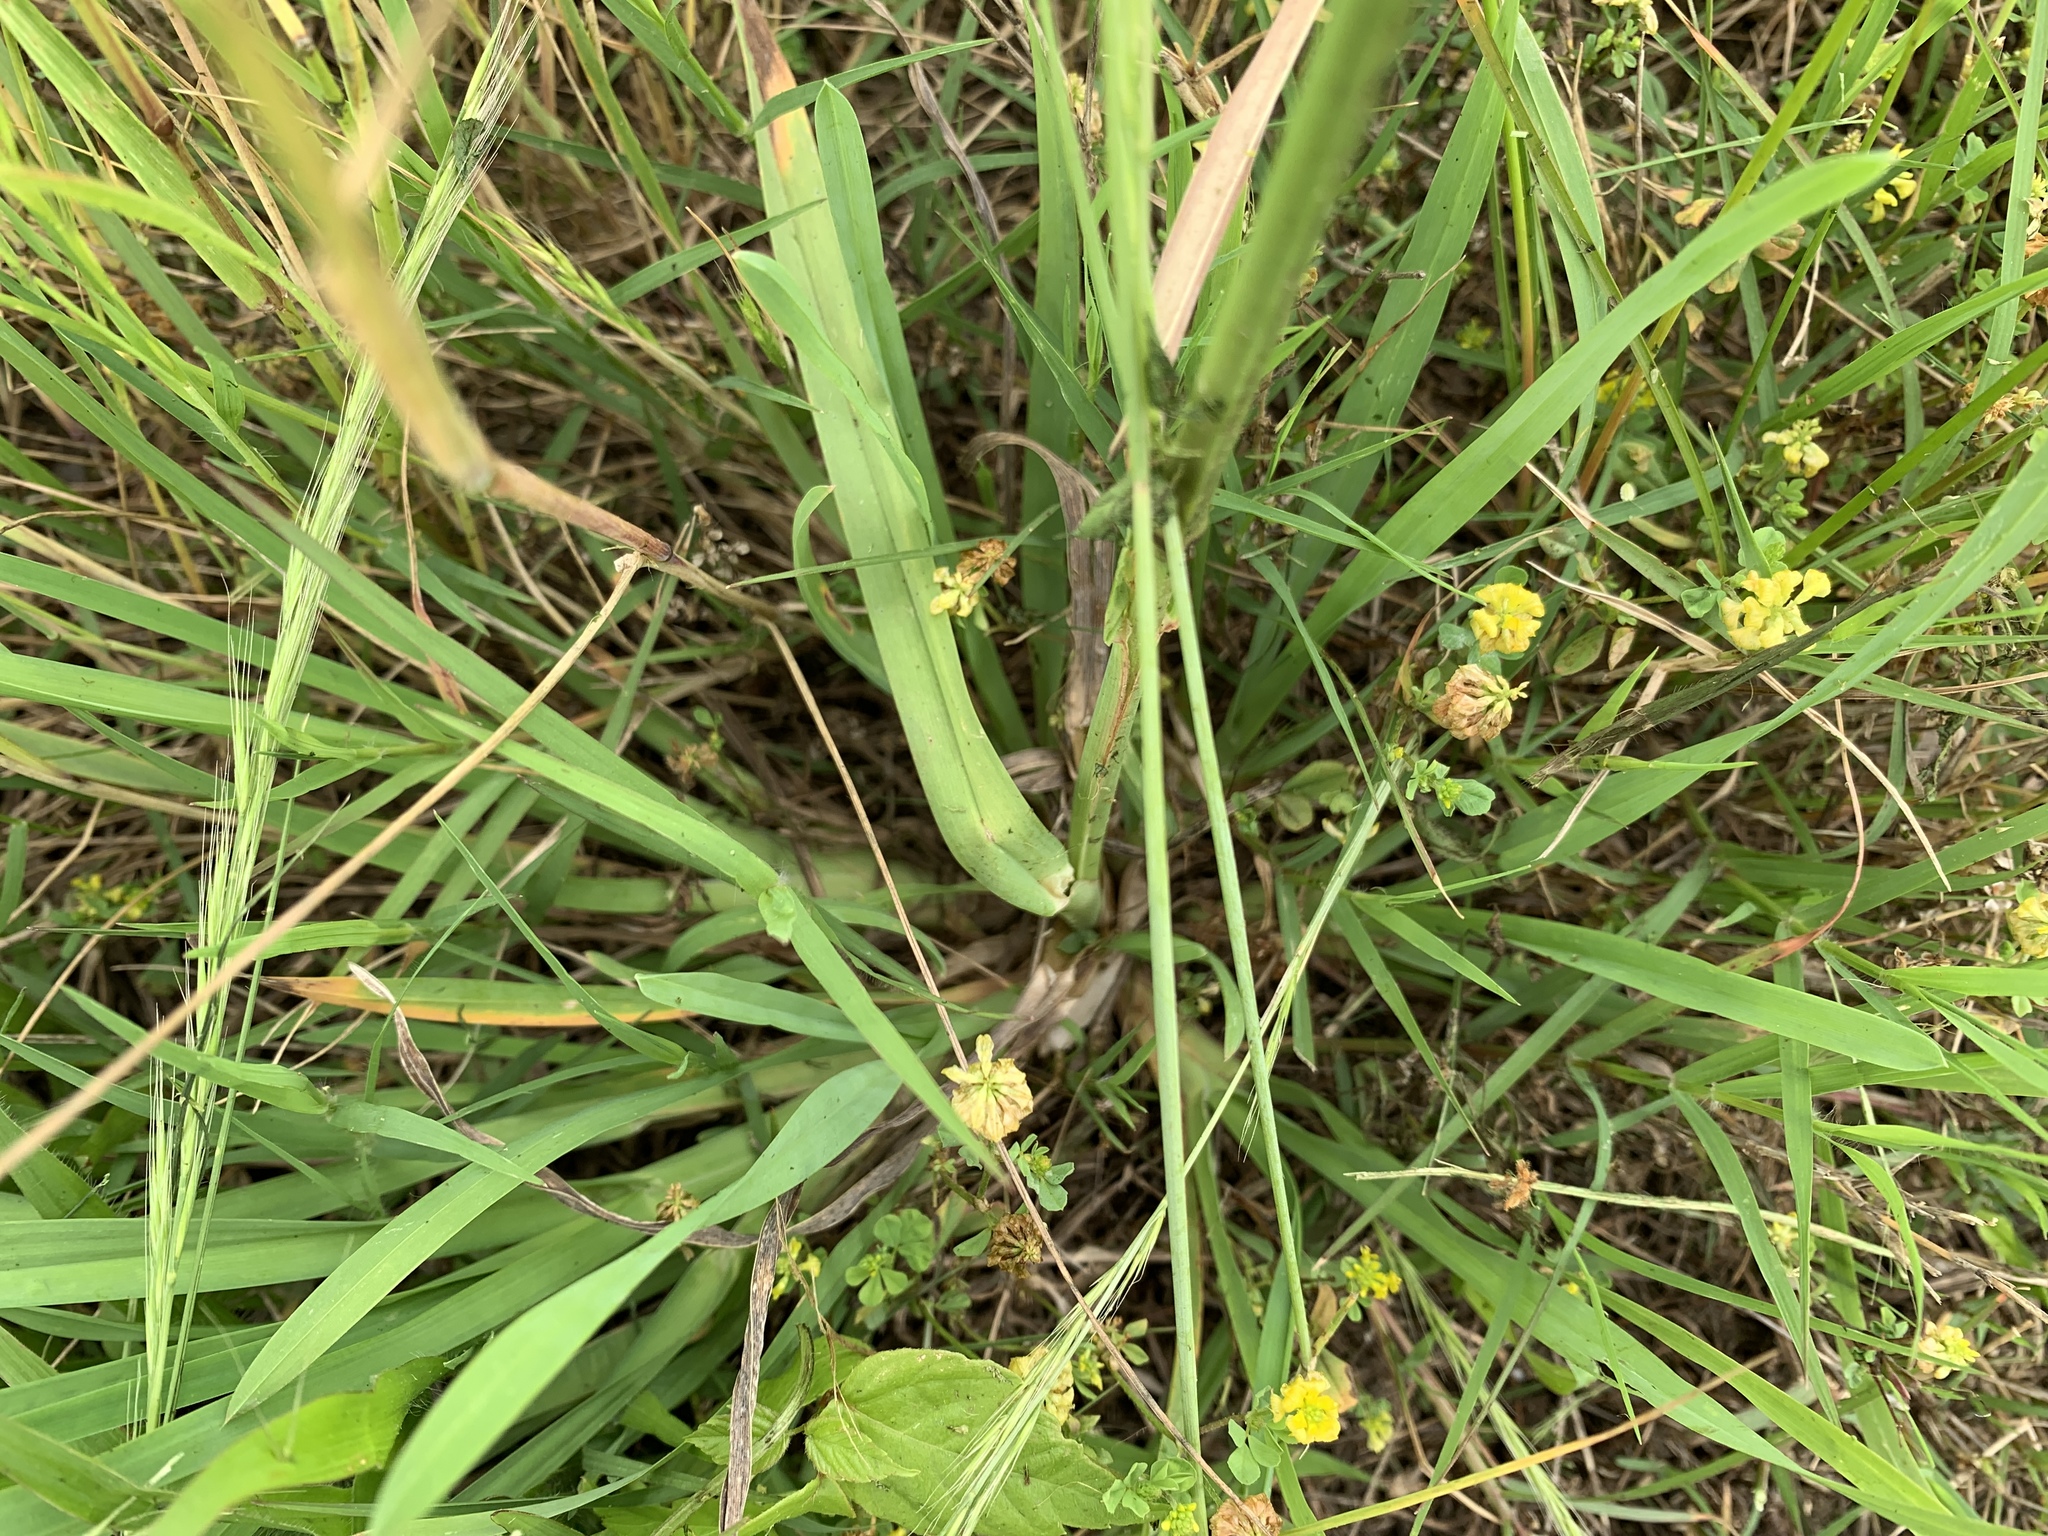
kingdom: Plantae
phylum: Tracheophyta
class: Liliopsida
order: Poales
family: Poaceae
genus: Dactylis
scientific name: Dactylis glomerata
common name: Orchardgrass
